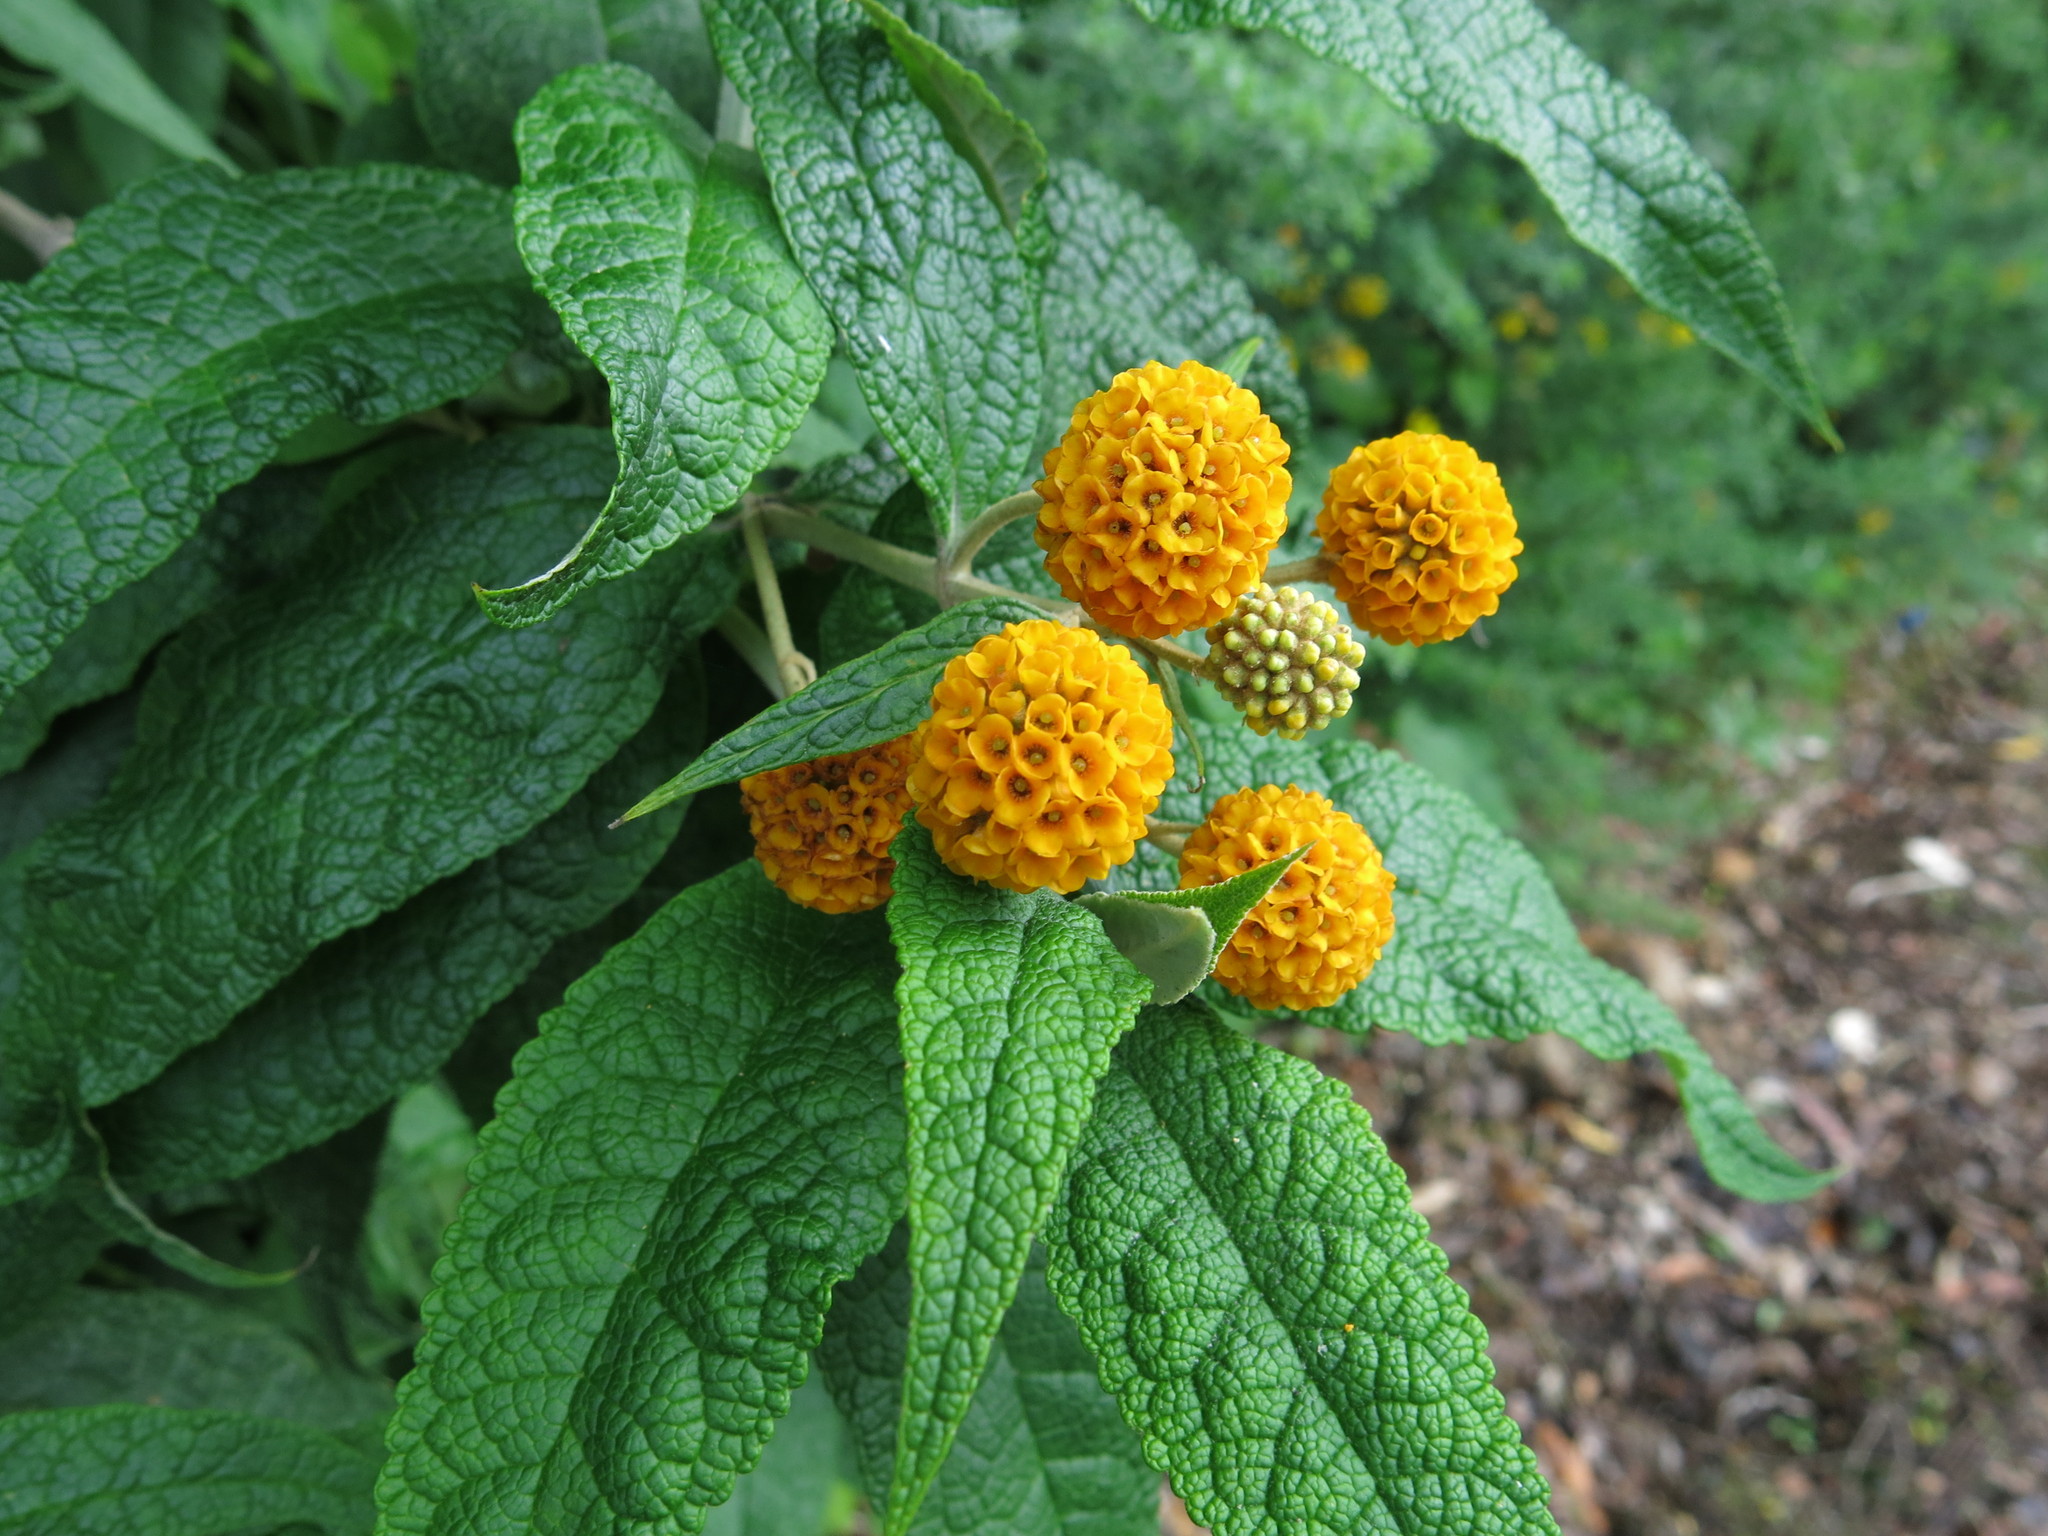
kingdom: Plantae
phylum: Tracheophyta
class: Magnoliopsida
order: Lamiales
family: Scrophulariaceae
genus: Buddleja
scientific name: Buddleja globosa
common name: Orange-ball-tree
